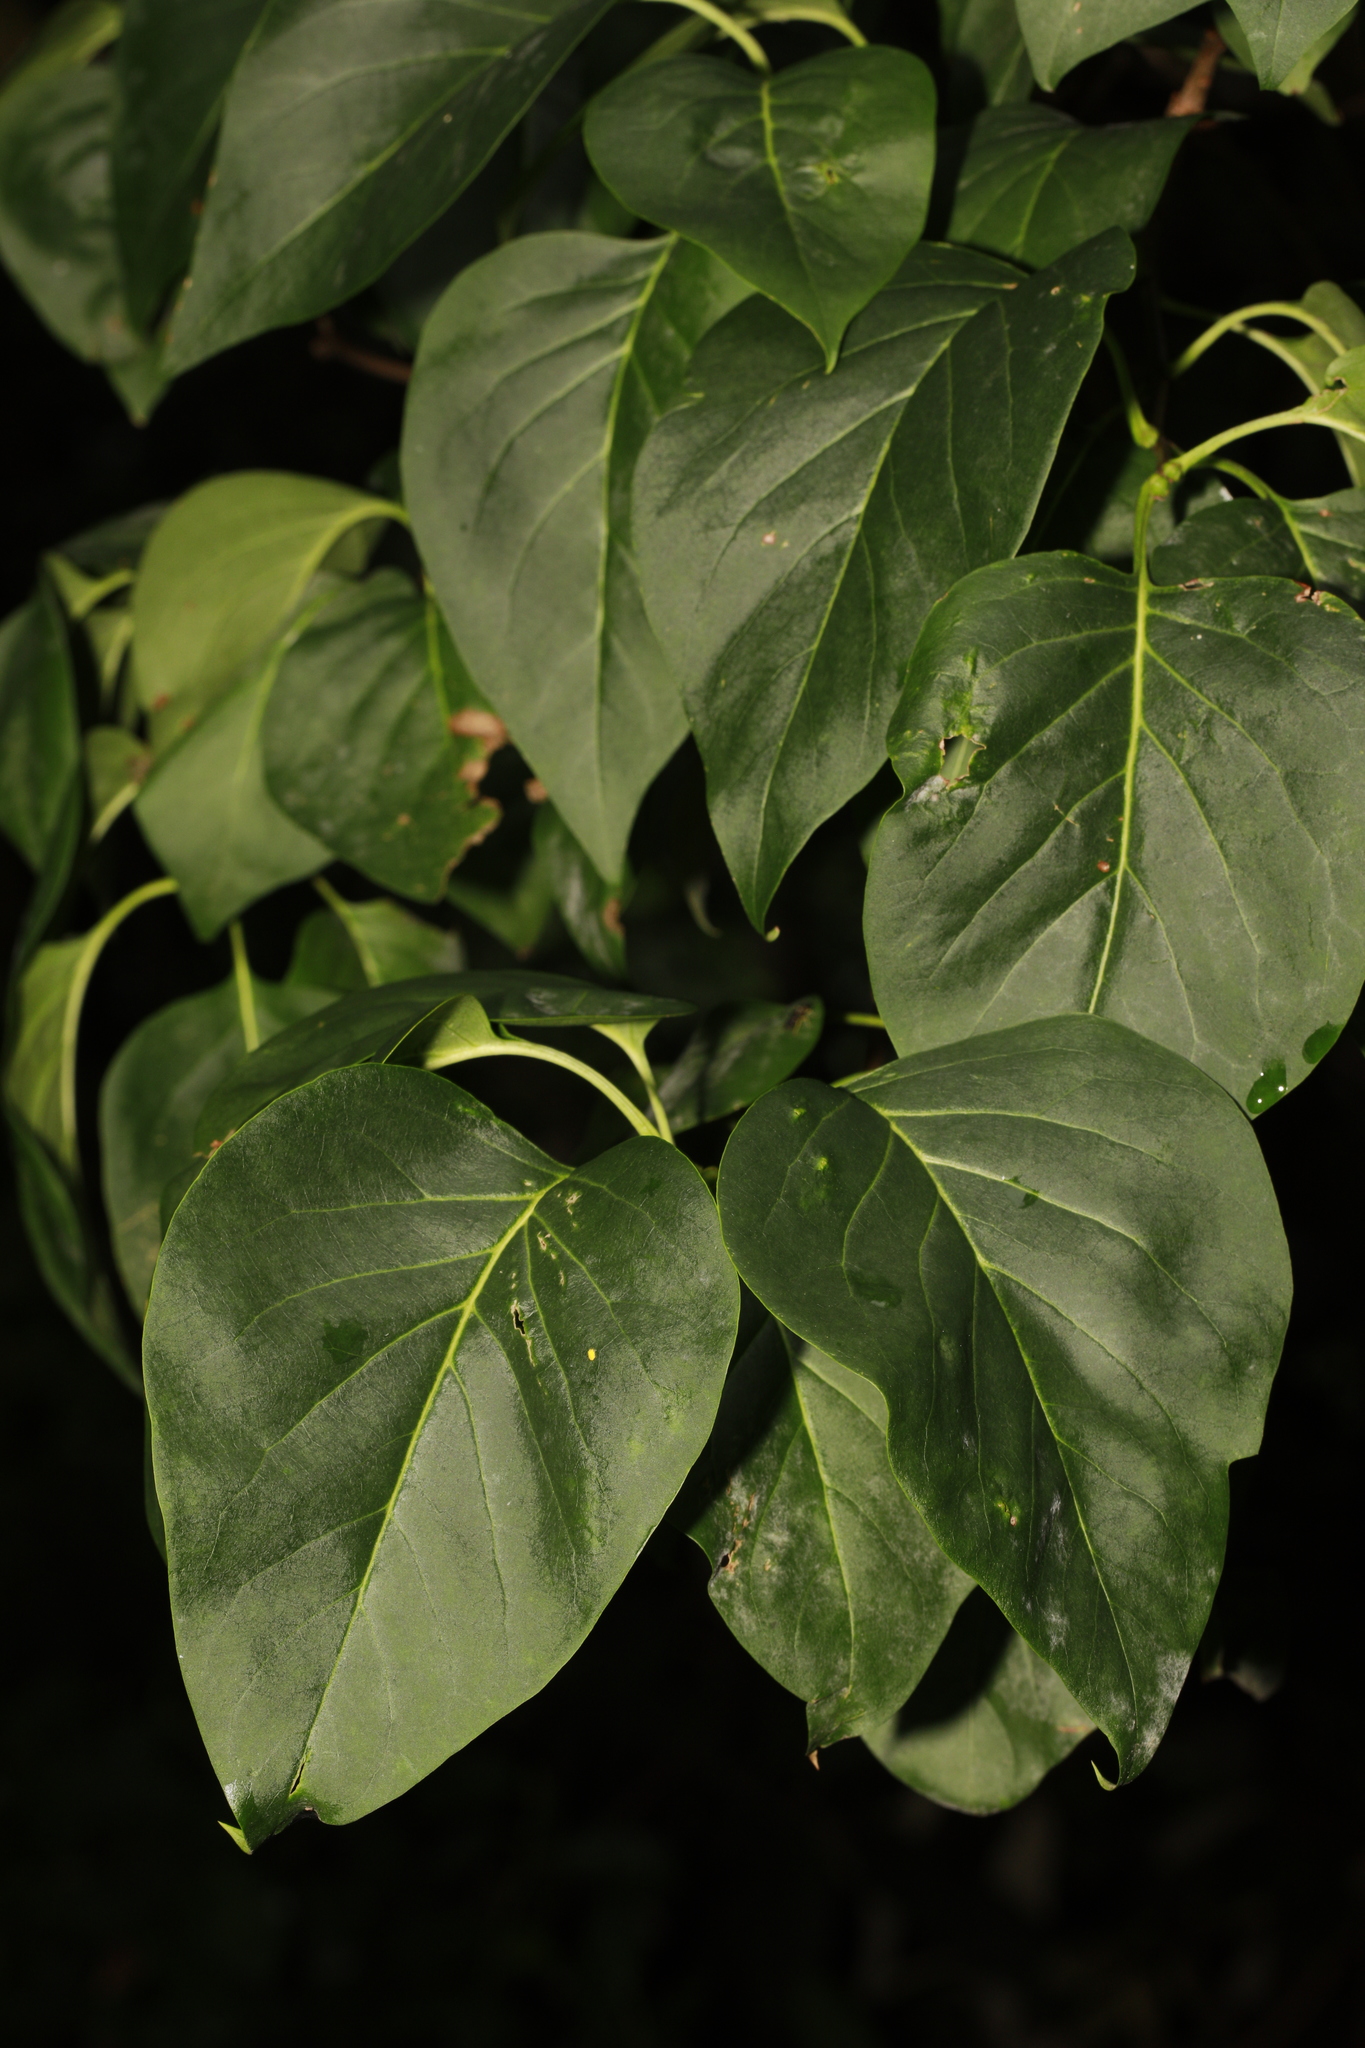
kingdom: Plantae
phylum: Tracheophyta
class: Magnoliopsida
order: Lamiales
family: Oleaceae
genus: Syringa
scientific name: Syringa vulgaris
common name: Common lilac
